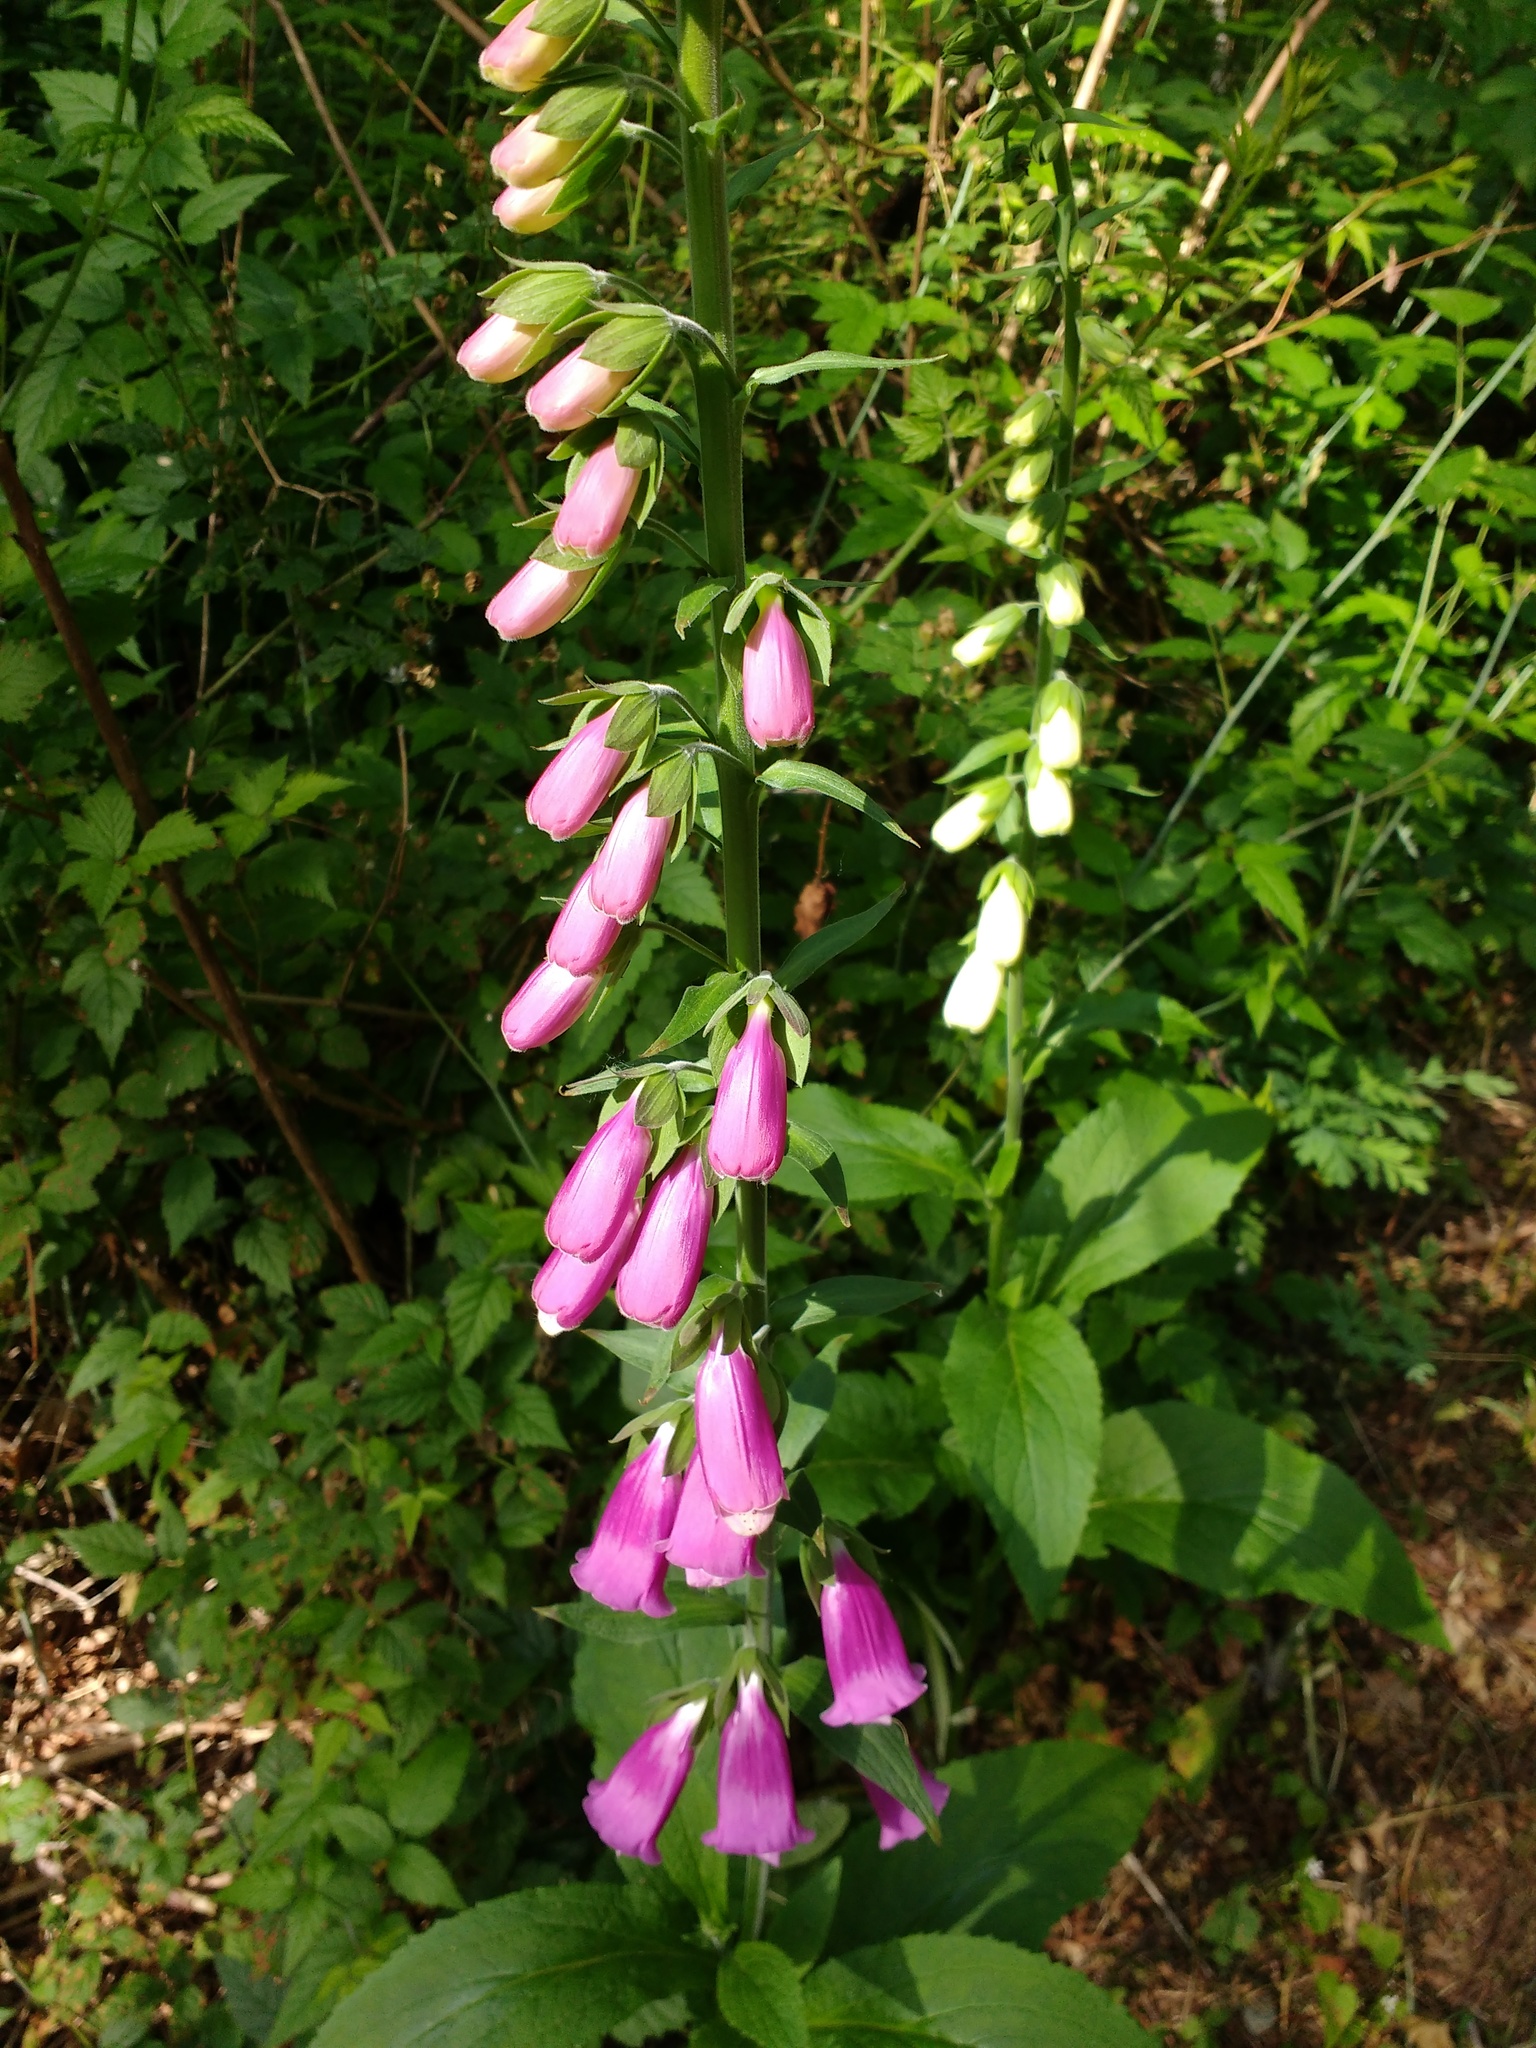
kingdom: Plantae
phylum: Tracheophyta
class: Magnoliopsida
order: Lamiales
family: Plantaginaceae
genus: Digitalis
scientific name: Digitalis purpurea
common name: Foxglove
